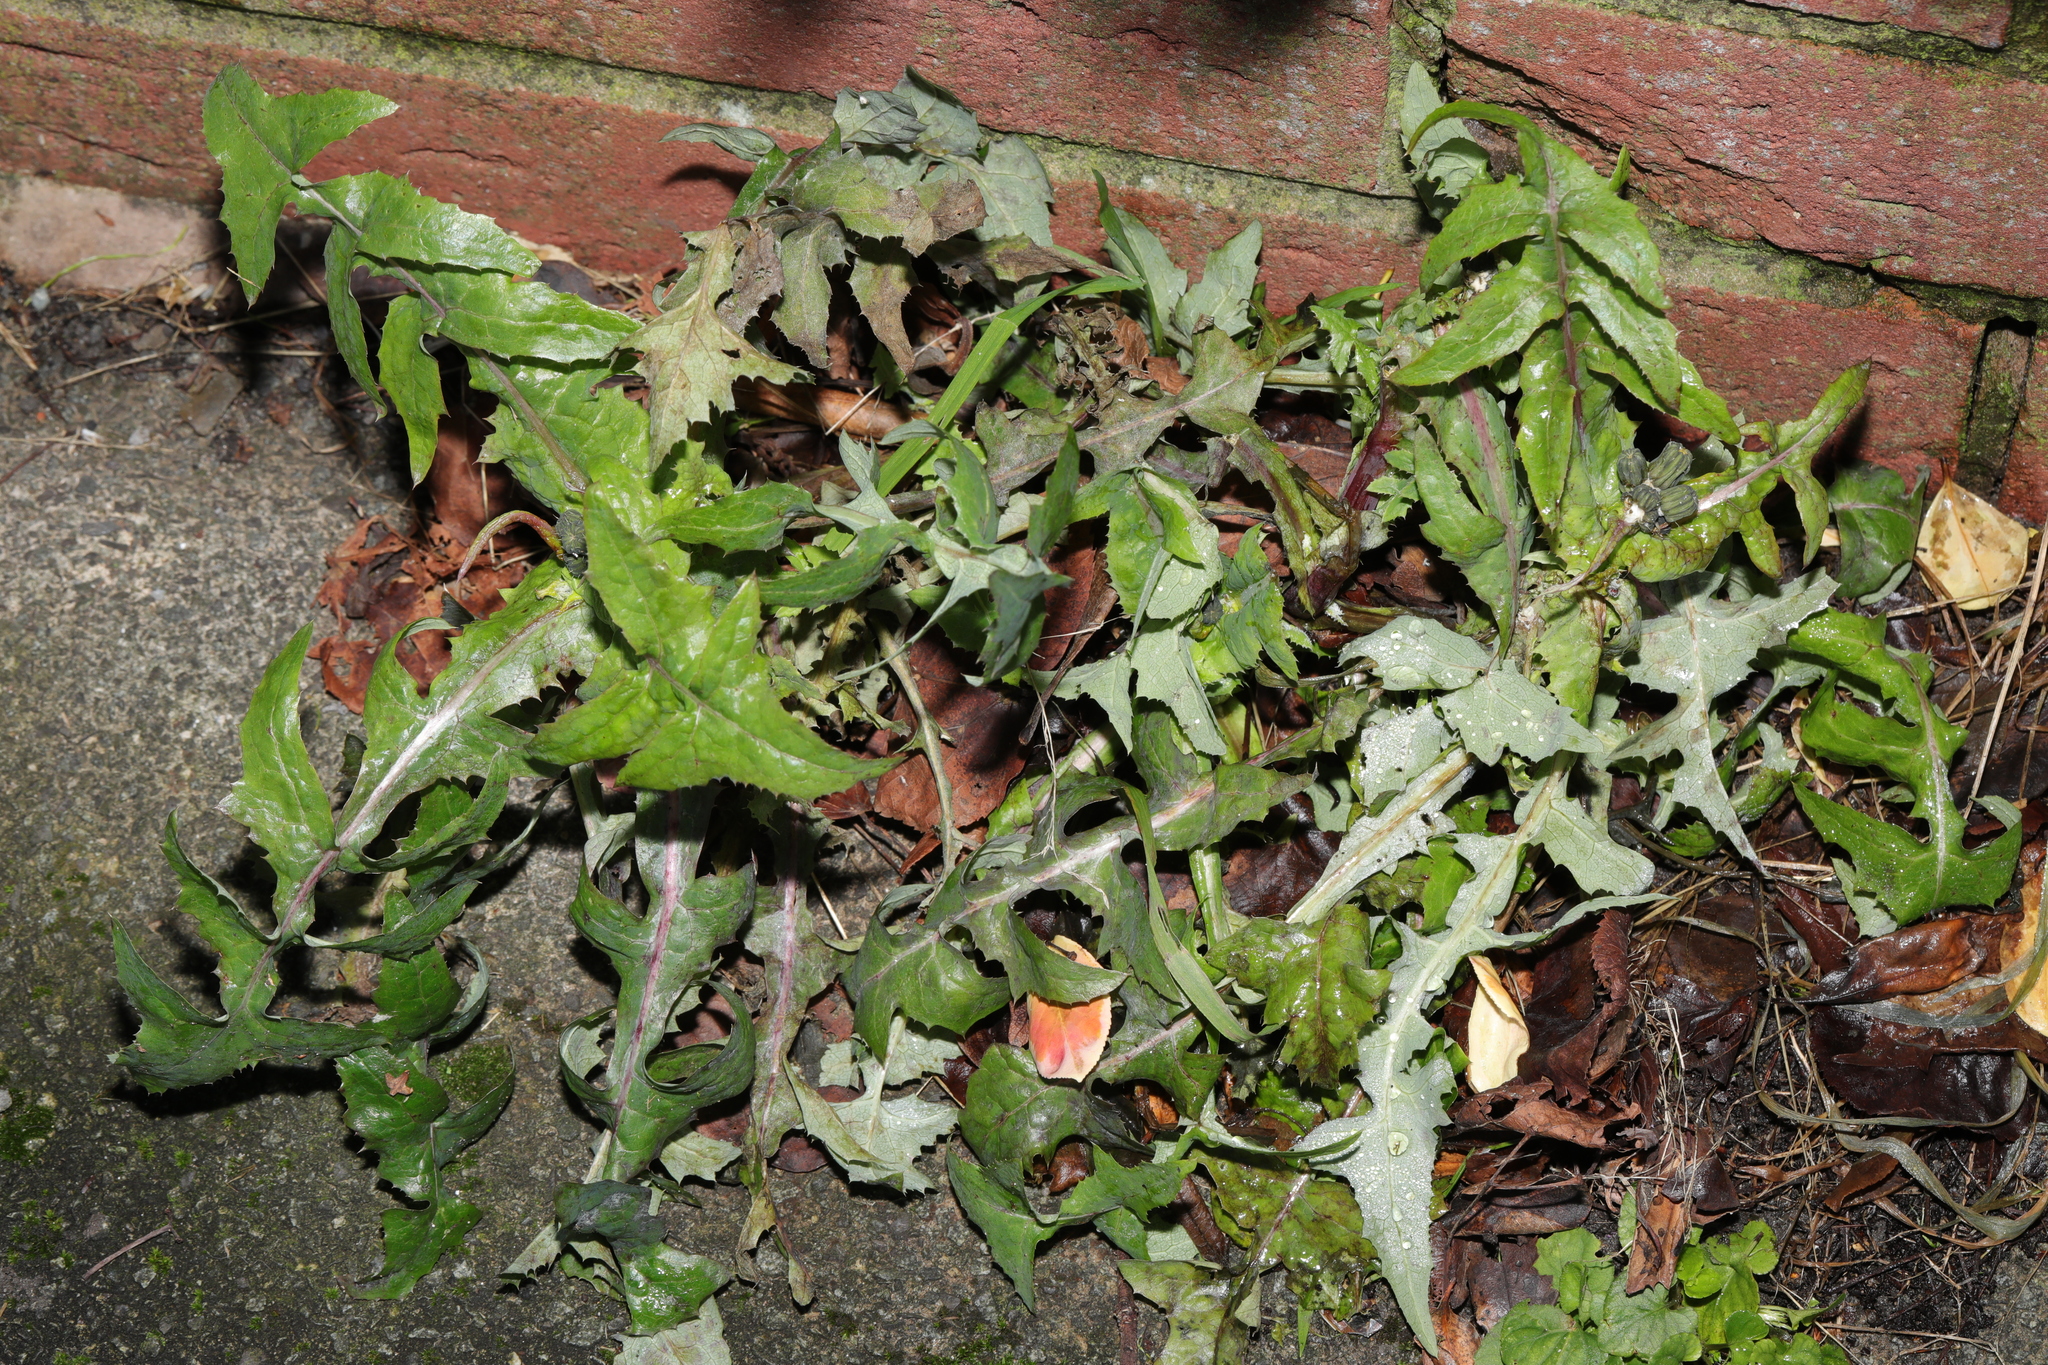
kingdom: Plantae
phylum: Tracheophyta
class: Magnoliopsida
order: Asterales
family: Asteraceae
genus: Sonchus
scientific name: Sonchus oleraceus
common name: Common sowthistle
